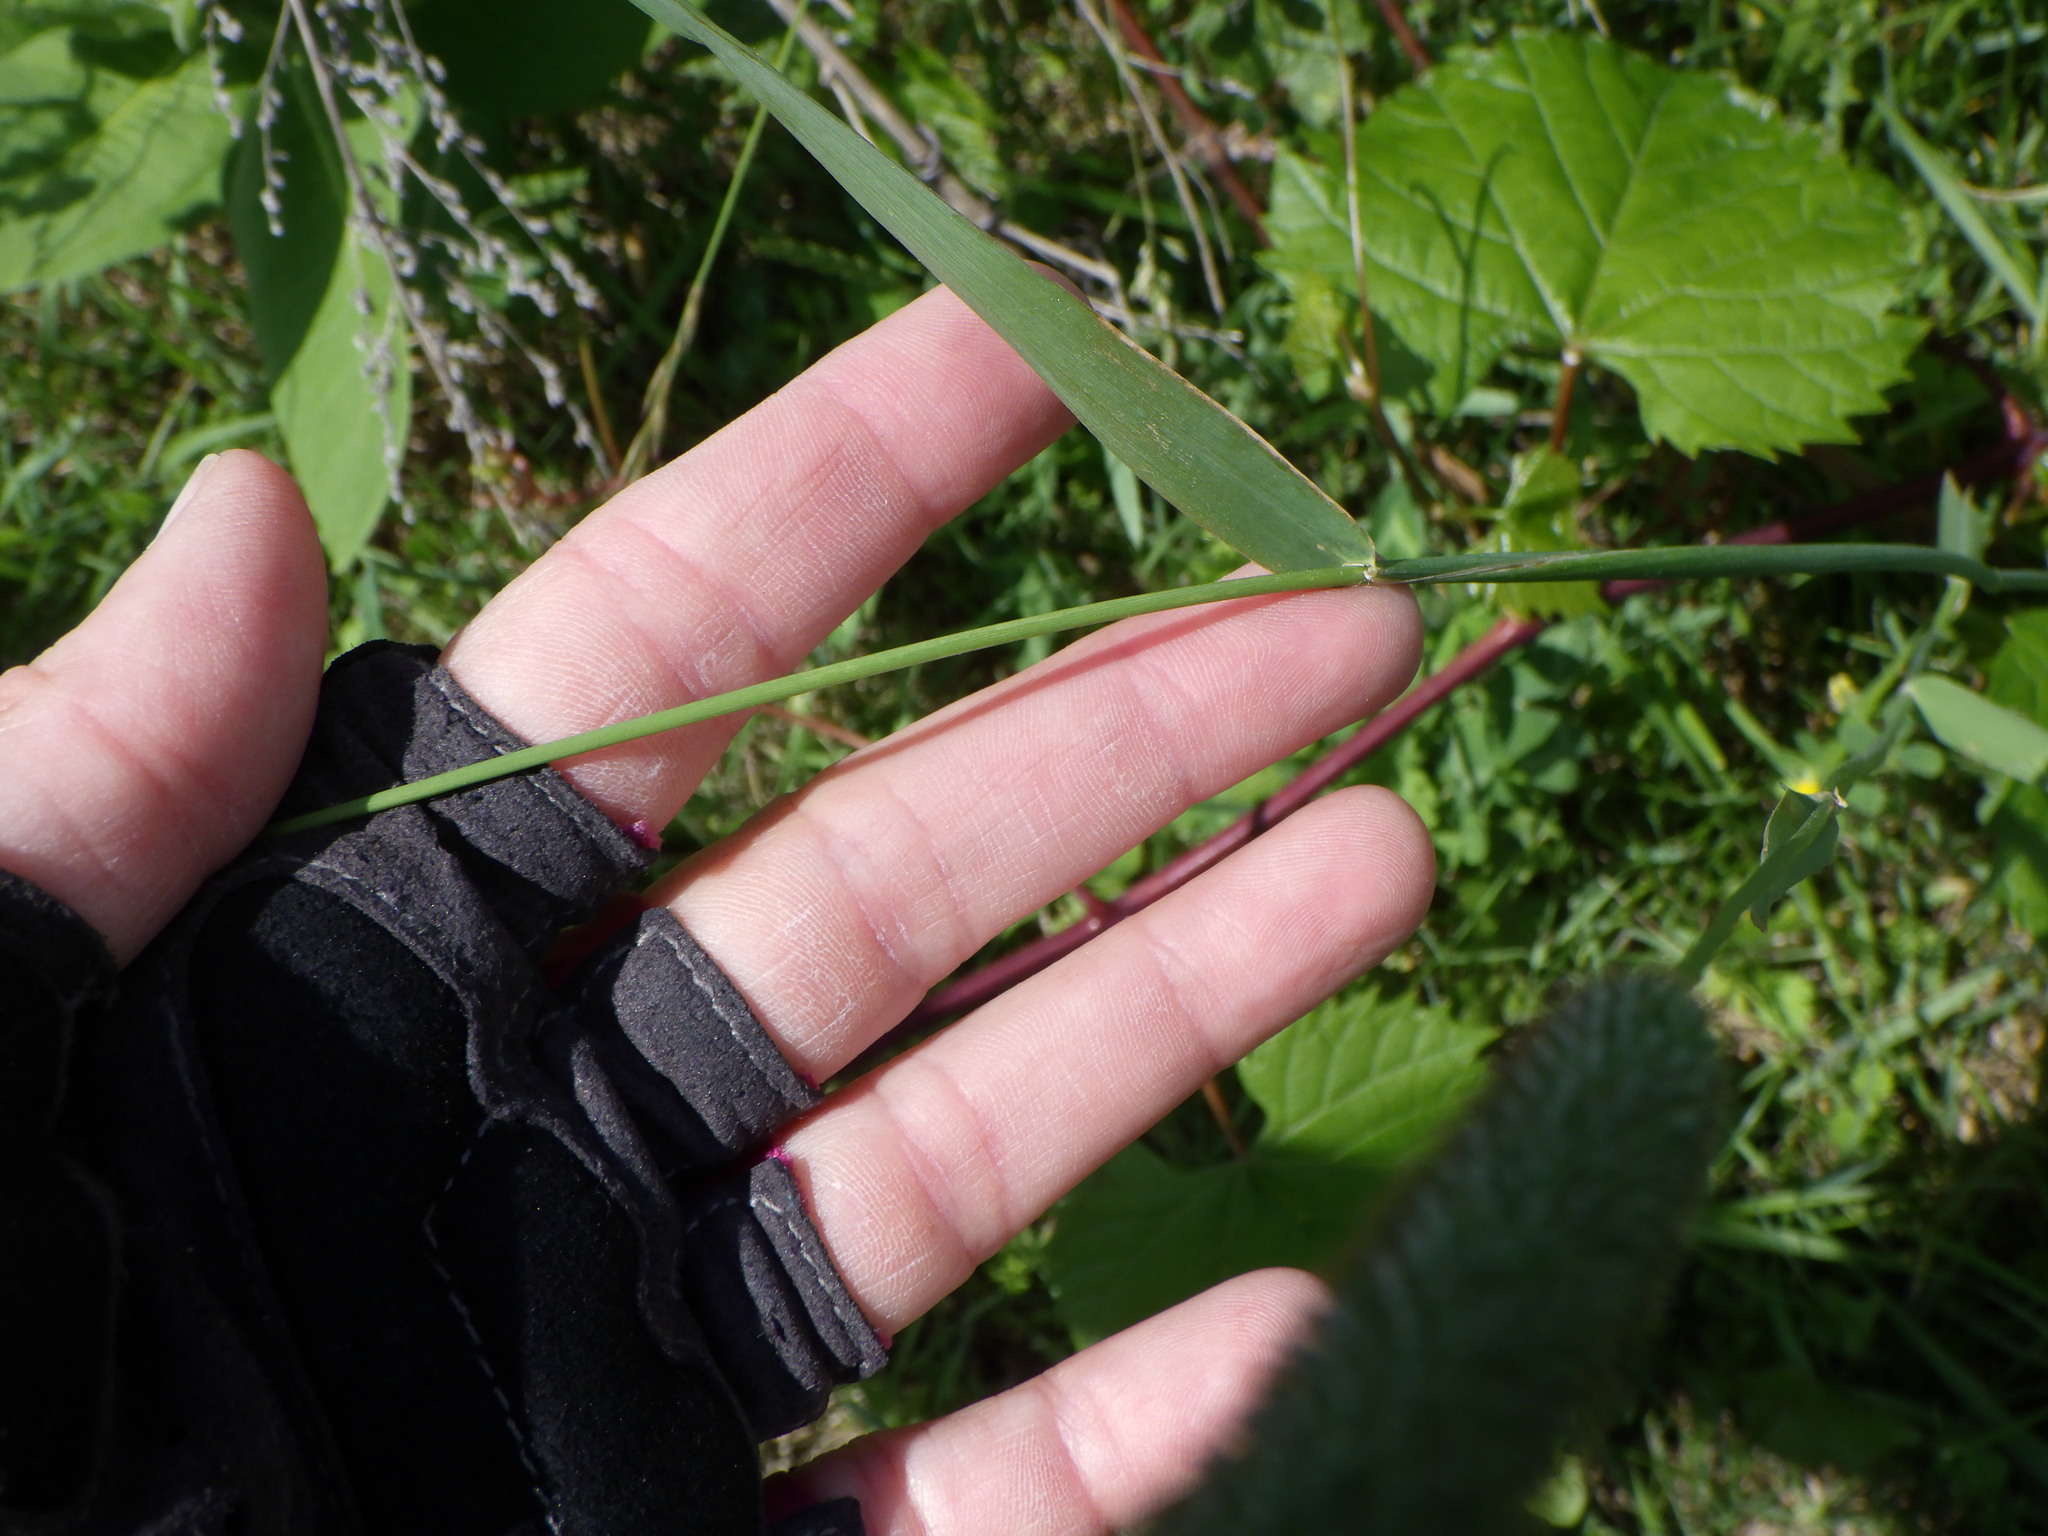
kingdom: Plantae
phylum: Tracheophyta
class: Liliopsida
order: Poales
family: Poaceae
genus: Phleum
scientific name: Phleum pratense
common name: Timothy grass
